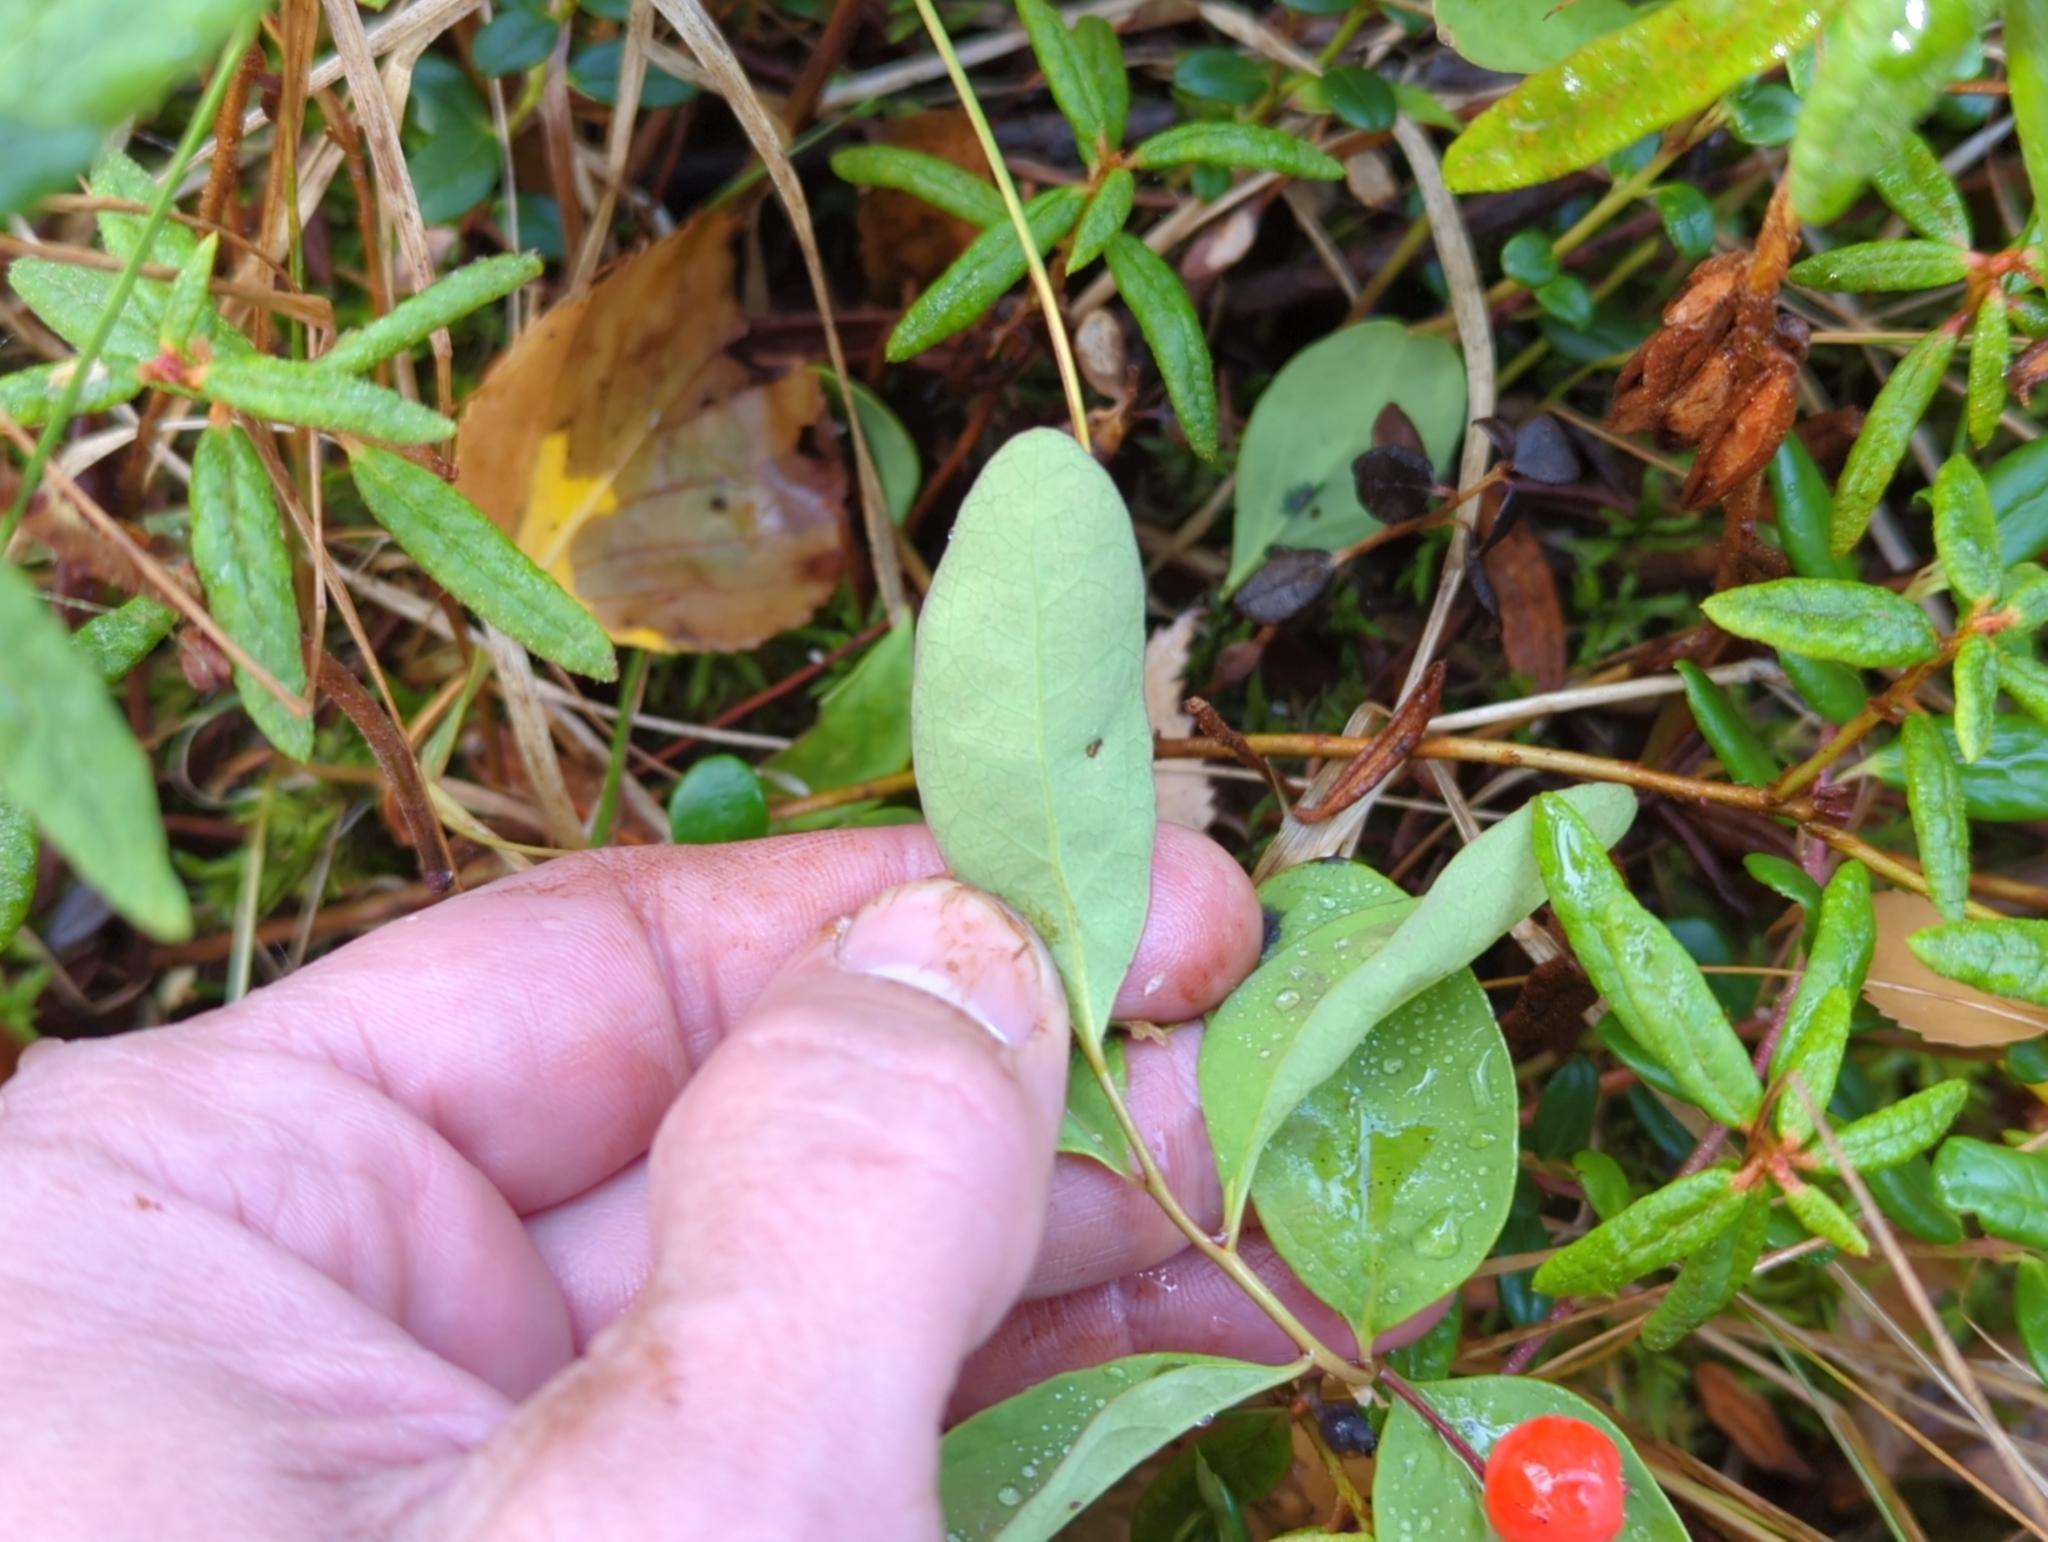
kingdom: Plantae
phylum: Tracheophyta
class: Magnoliopsida
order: Santalales
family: Comandraceae
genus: Geocaulon
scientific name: Geocaulon lividum
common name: Earthberry
